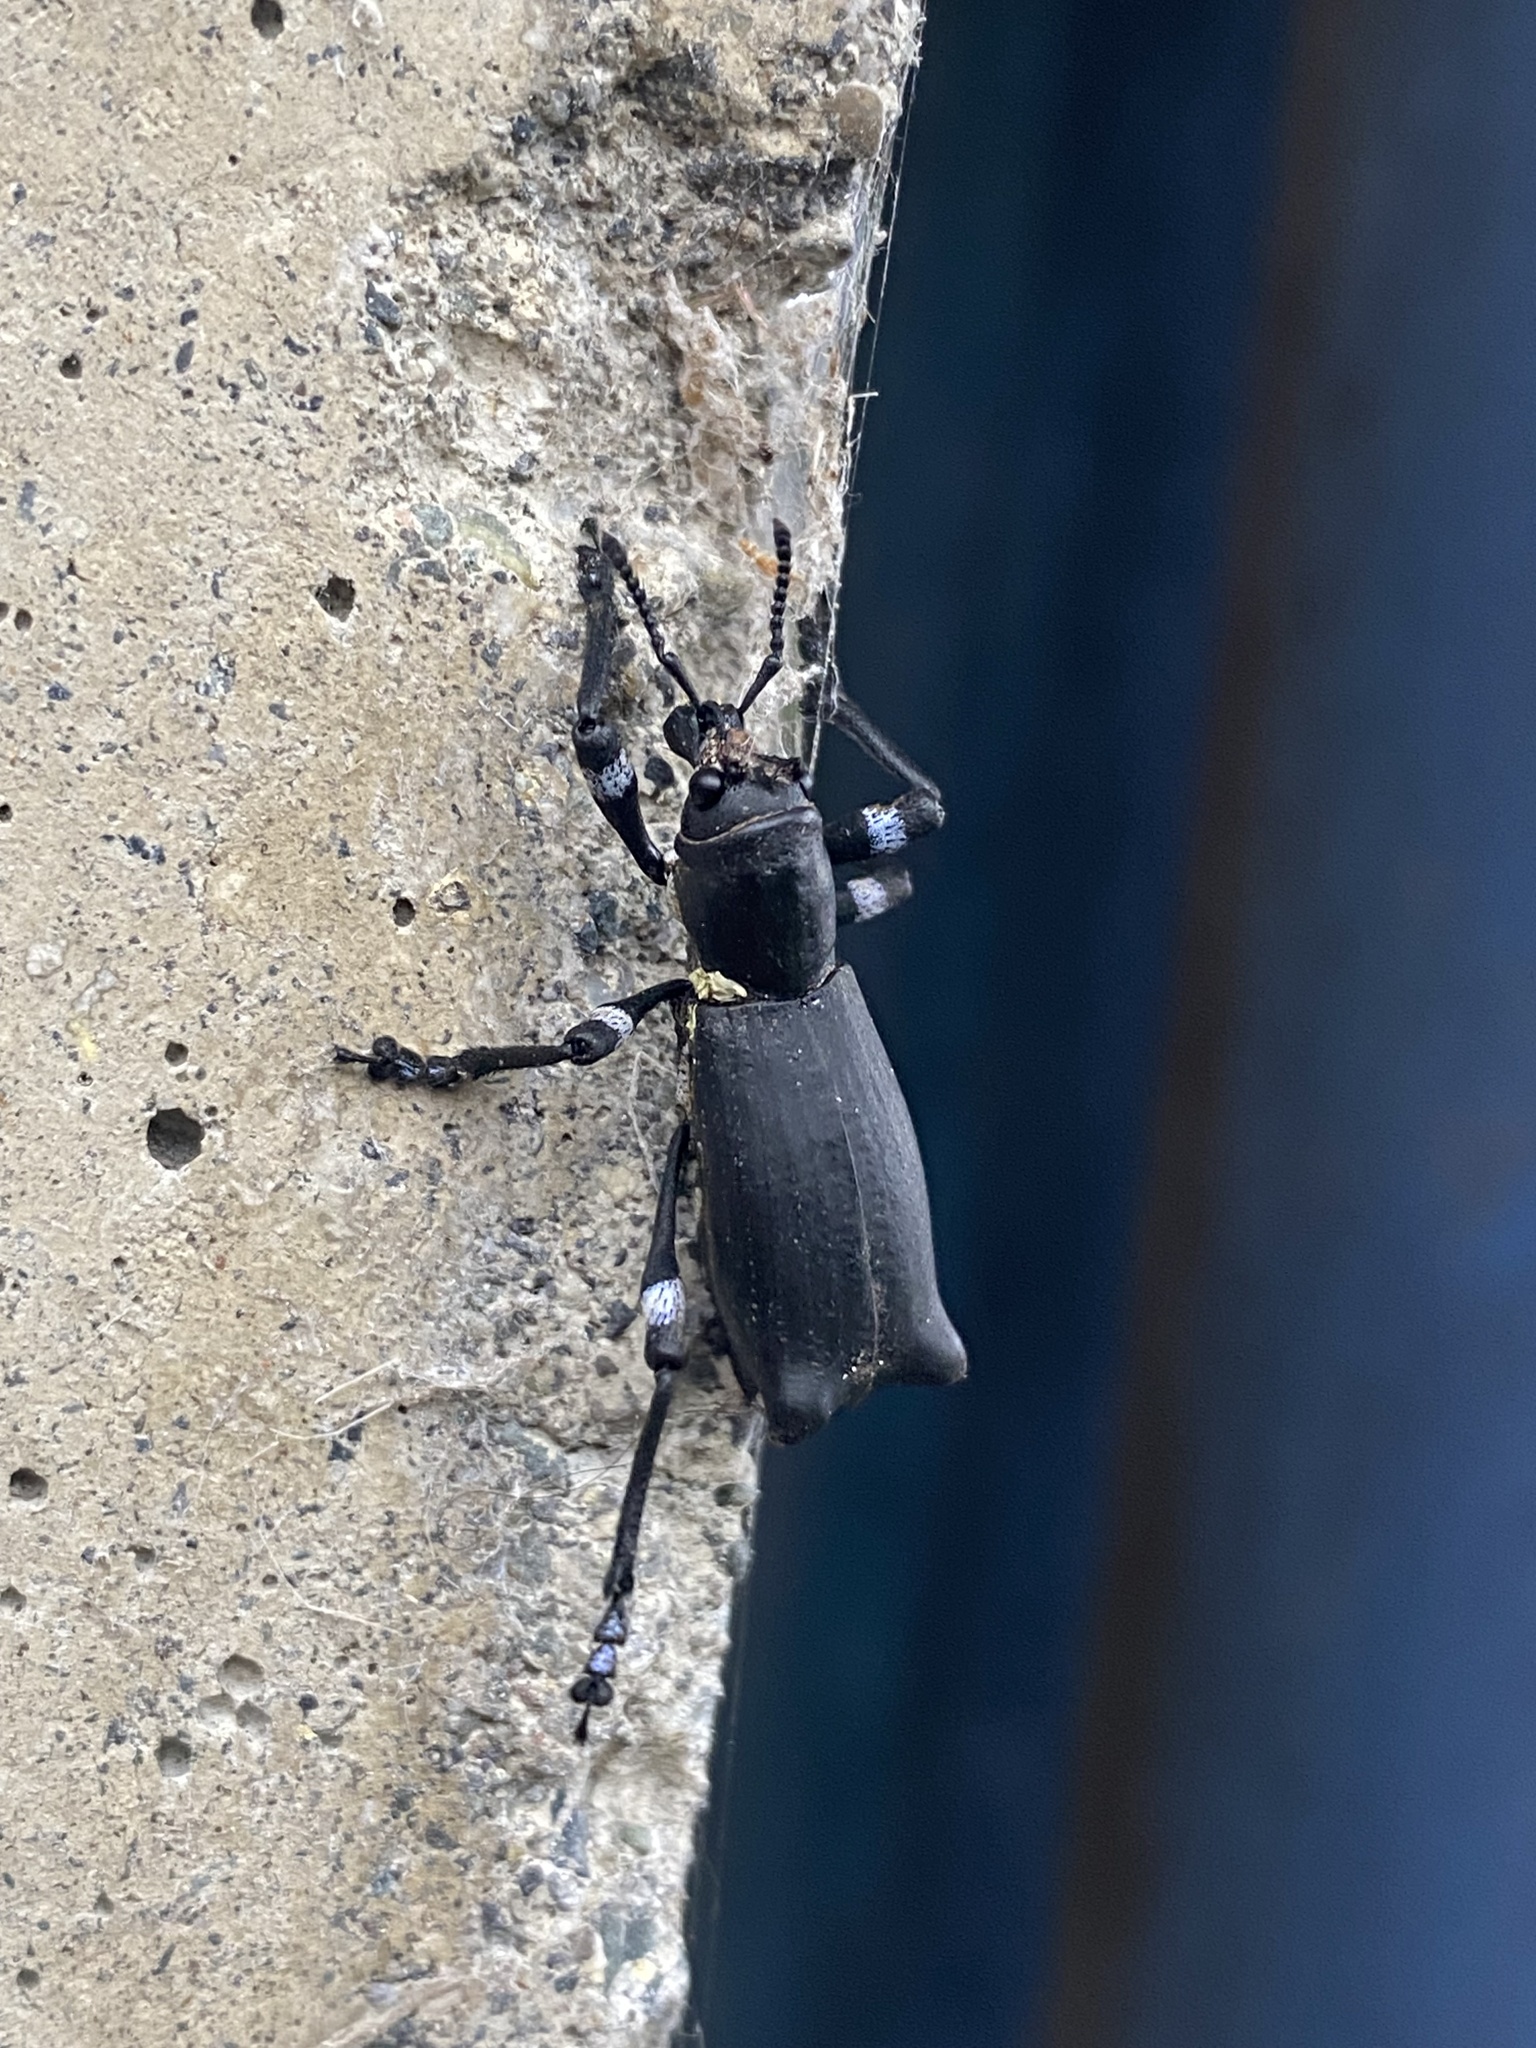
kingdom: Animalia
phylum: Arthropoda
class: Insecta
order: Coleoptera
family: Curculionidae
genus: Aegorhinus
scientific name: Aegorhinus
